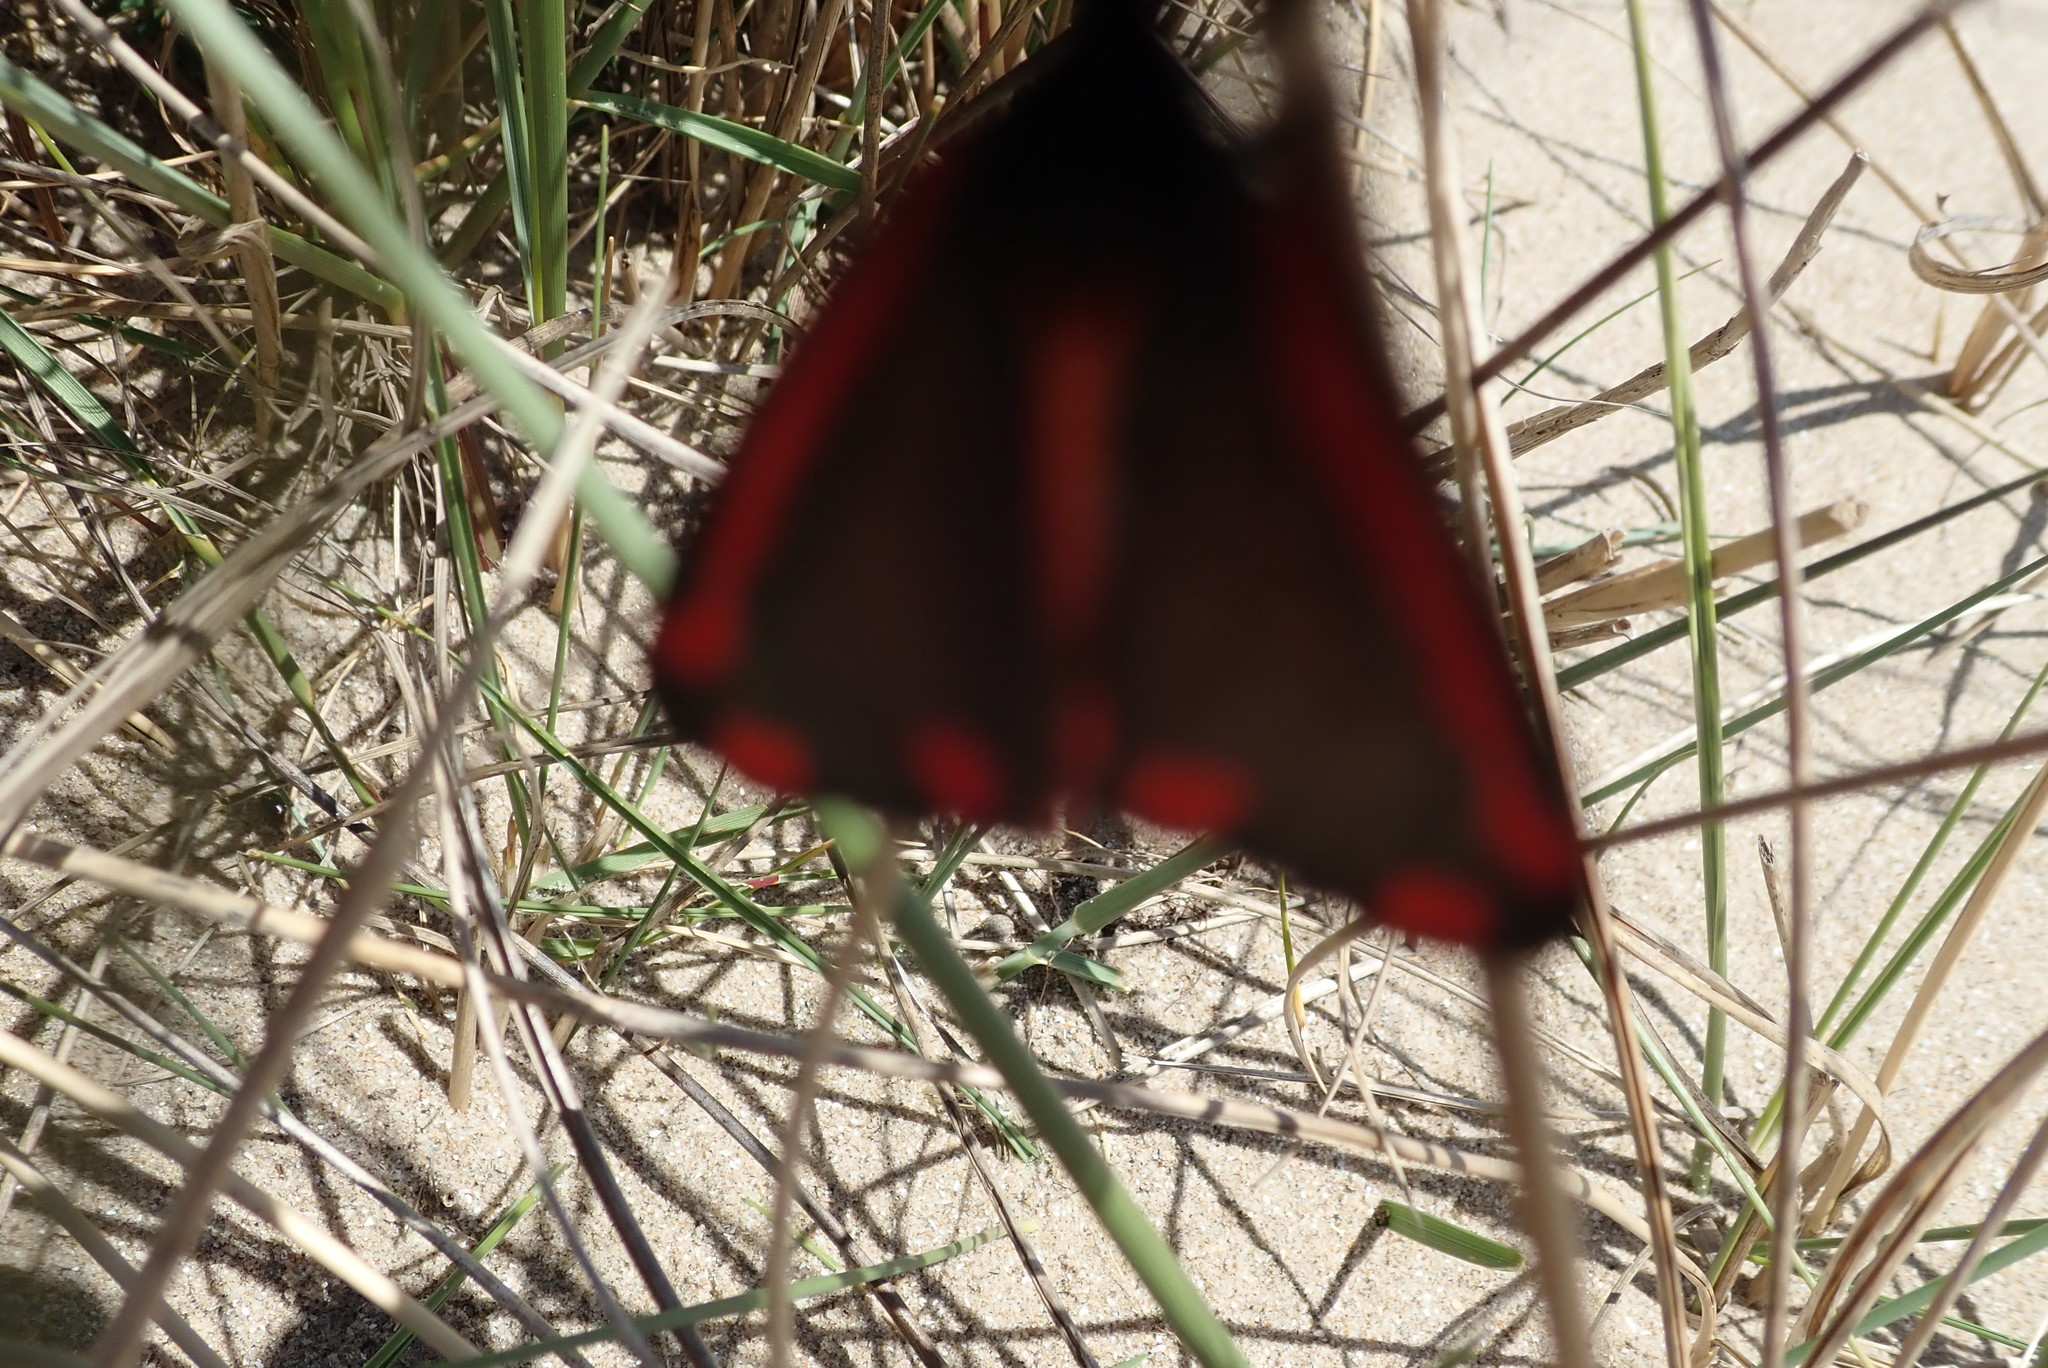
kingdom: Animalia
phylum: Arthropoda
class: Insecta
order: Lepidoptera
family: Erebidae
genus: Tyria
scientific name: Tyria jacobaeae
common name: Cinnabar
